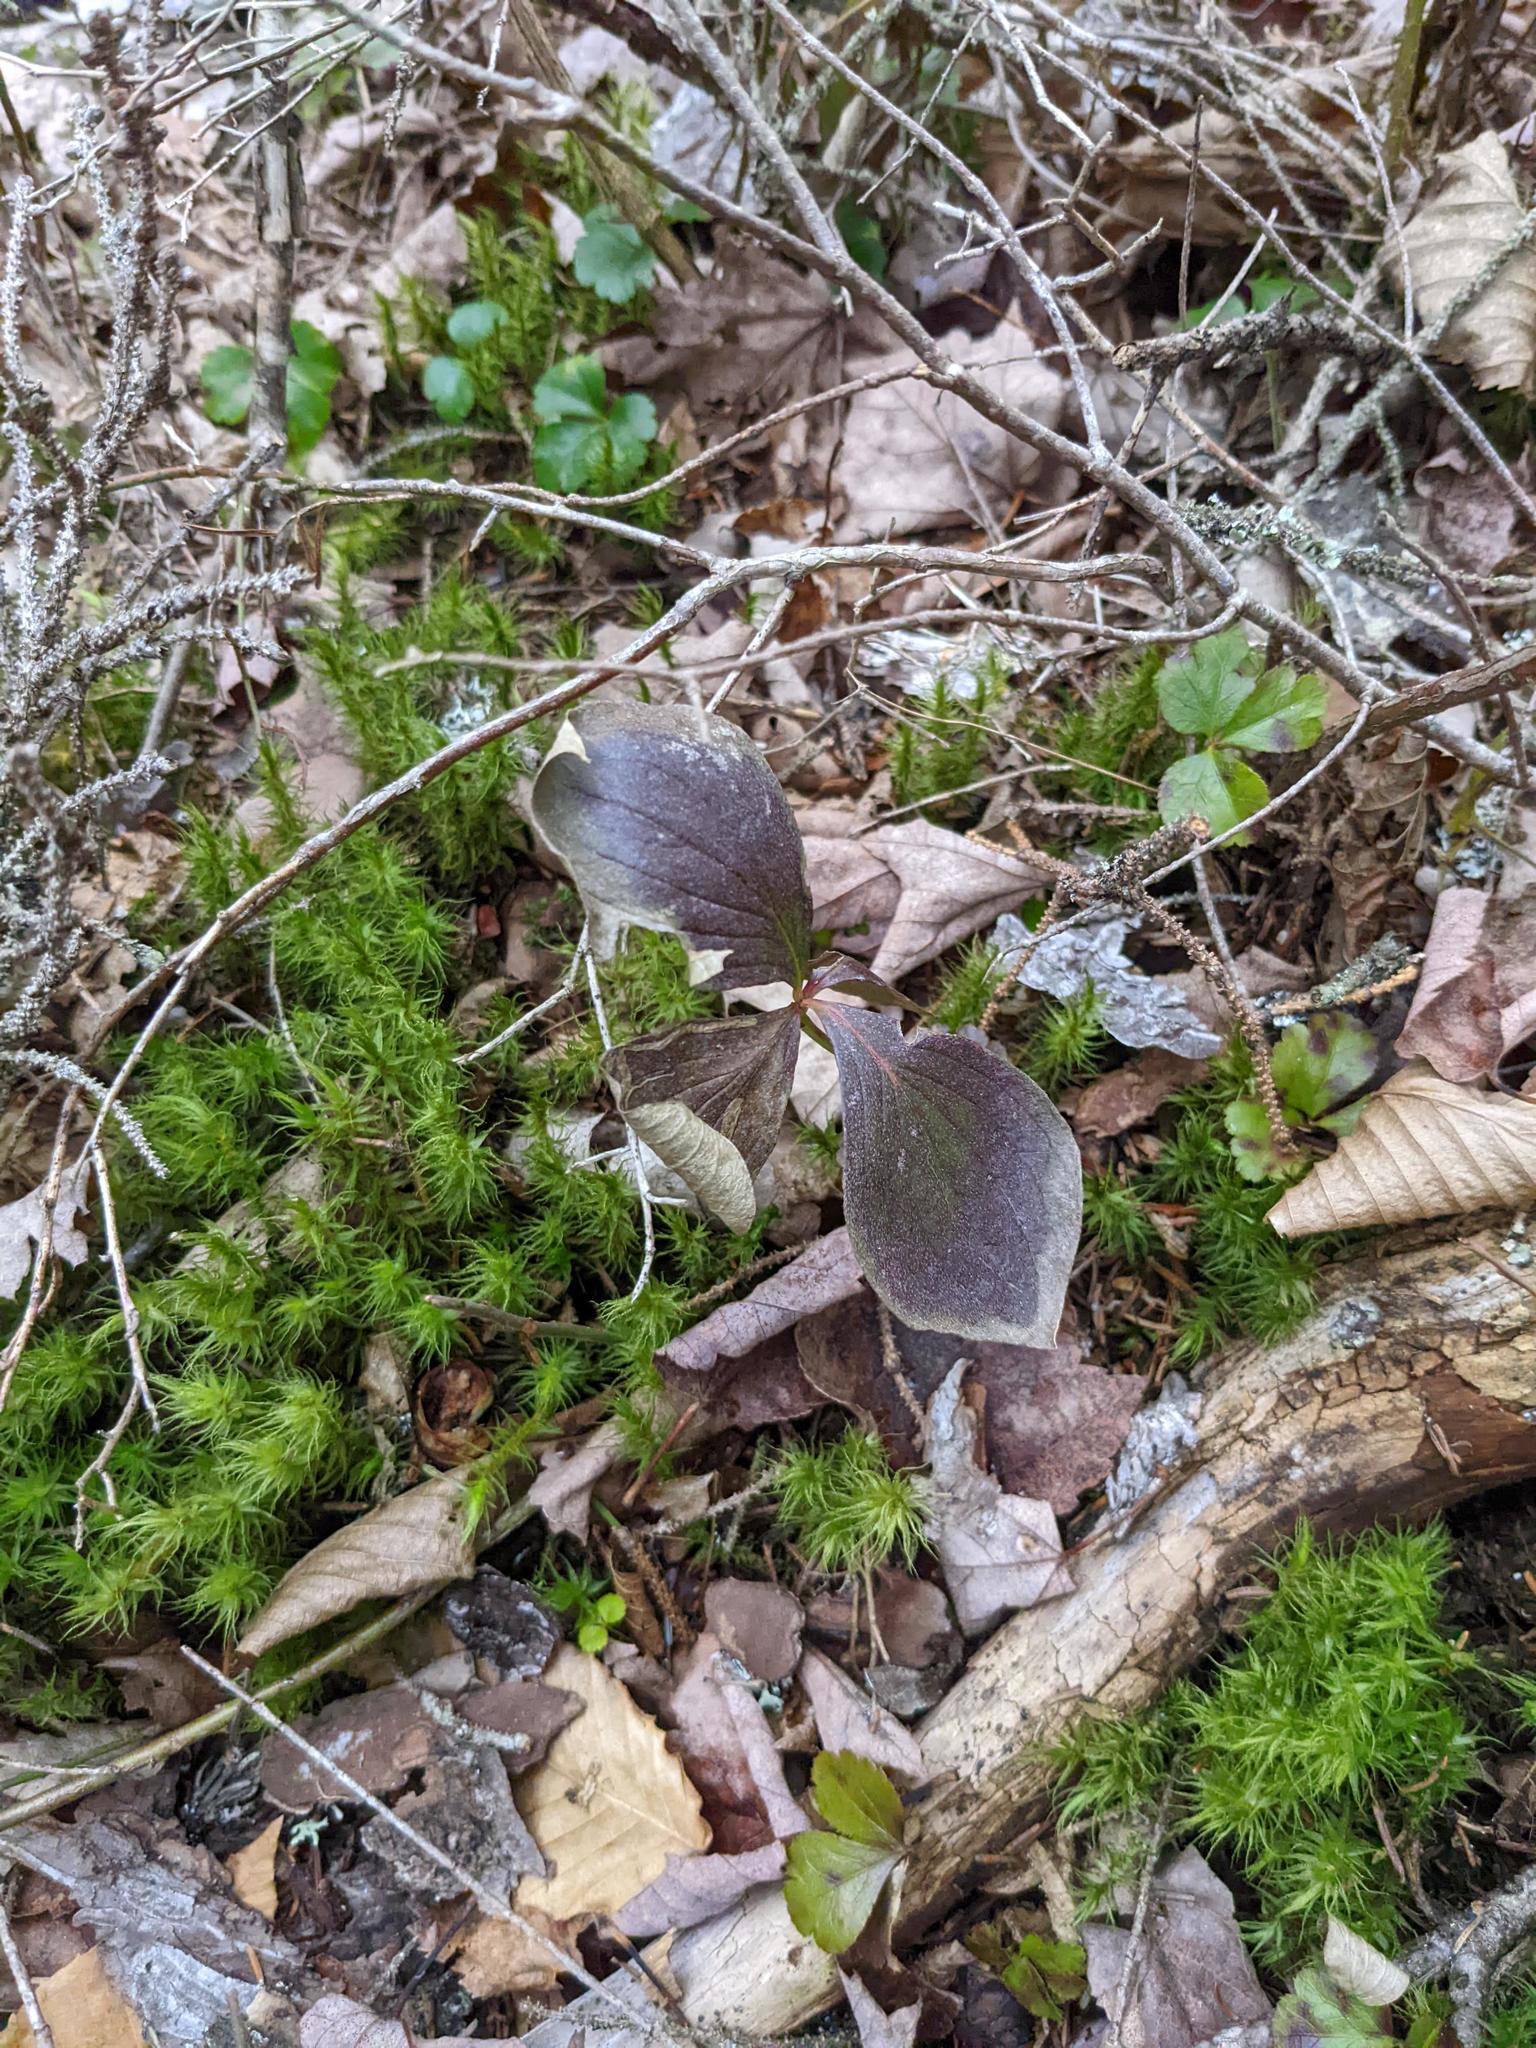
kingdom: Plantae
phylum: Tracheophyta
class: Magnoliopsida
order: Cornales
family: Cornaceae
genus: Cornus
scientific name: Cornus canadensis
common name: Creeping dogwood
